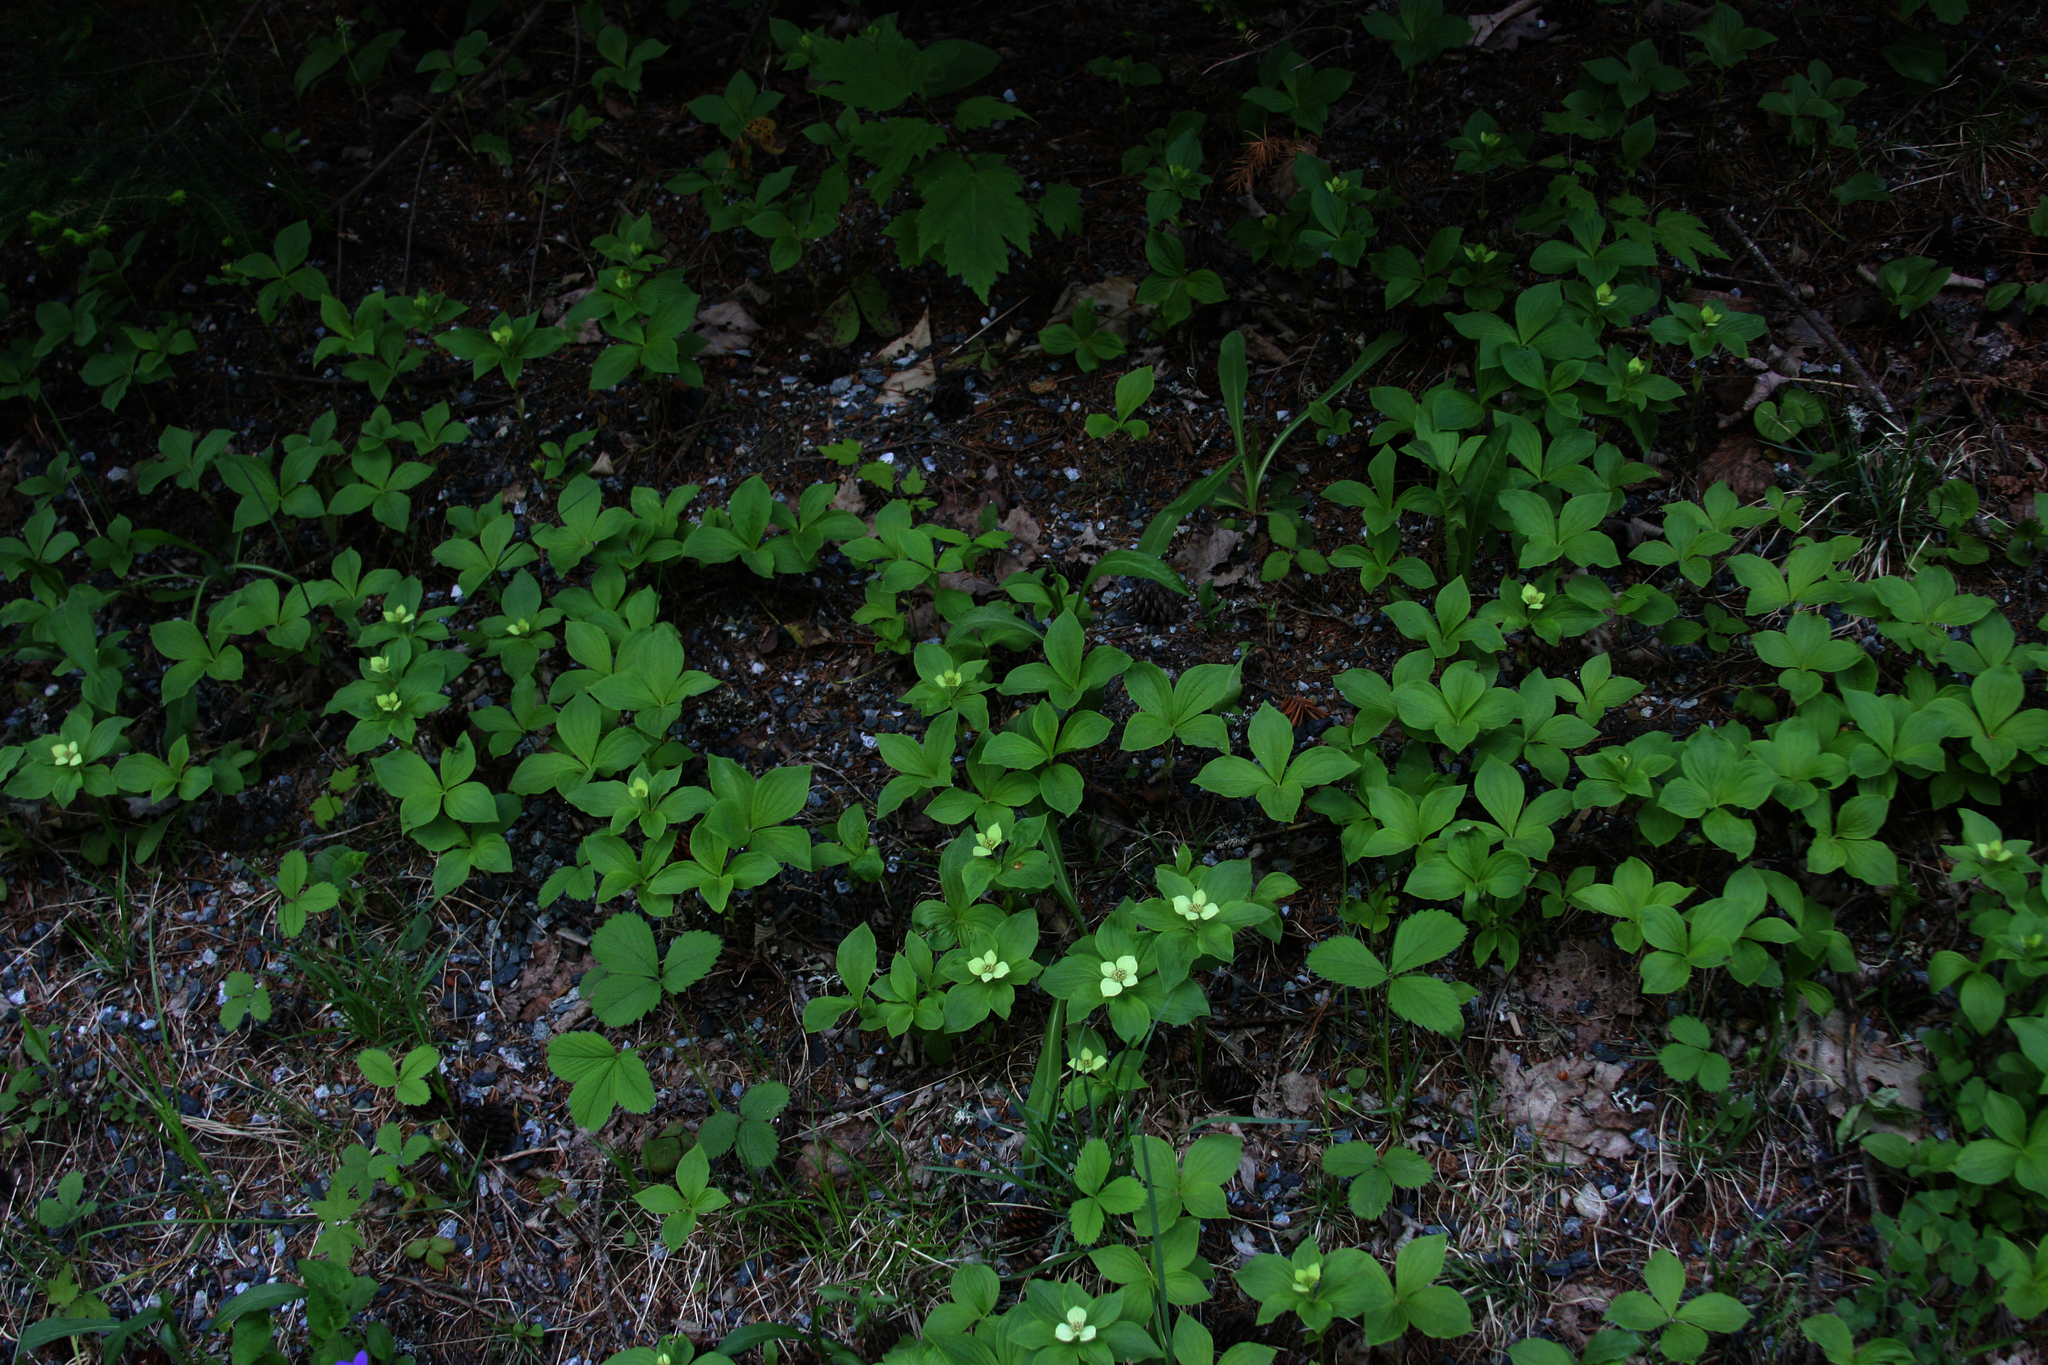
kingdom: Plantae
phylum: Tracheophyta
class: Magnoliopsida
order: Cornales
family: Cornaceae
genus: Cornus
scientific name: Cornus canadensis
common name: Creeping dogwood
